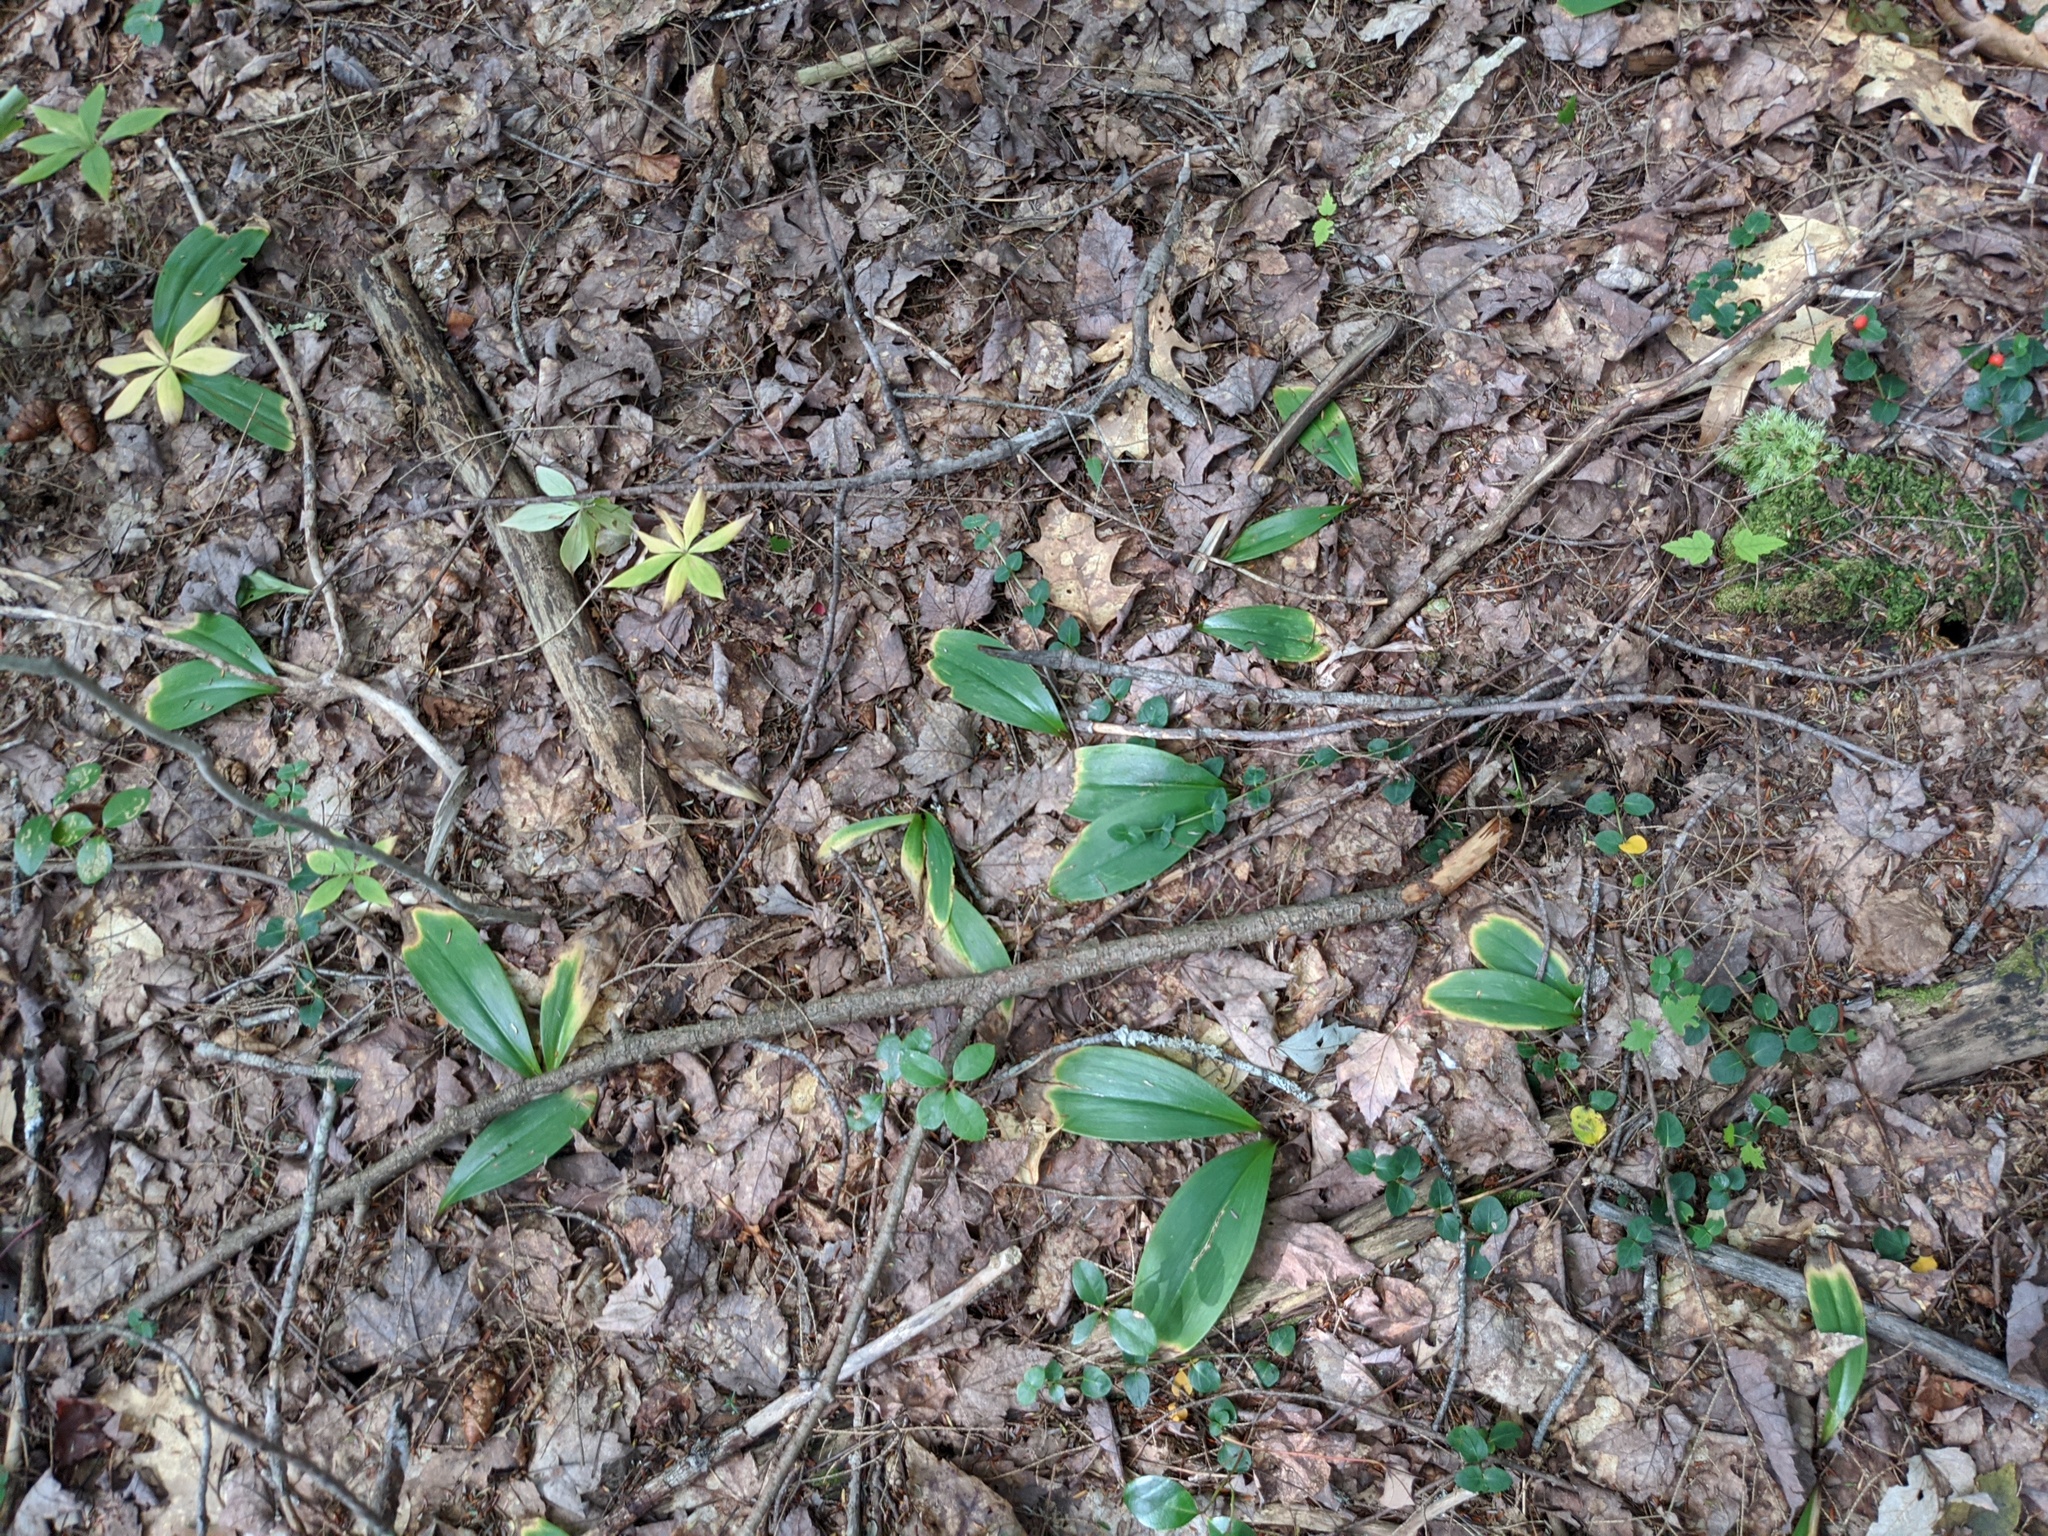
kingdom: Plantae
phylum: Tracheophyta
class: Liliopsida
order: Liliales
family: Liliaceae
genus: Clintonia
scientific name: Clintonia borealis
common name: Yellow clintonia
